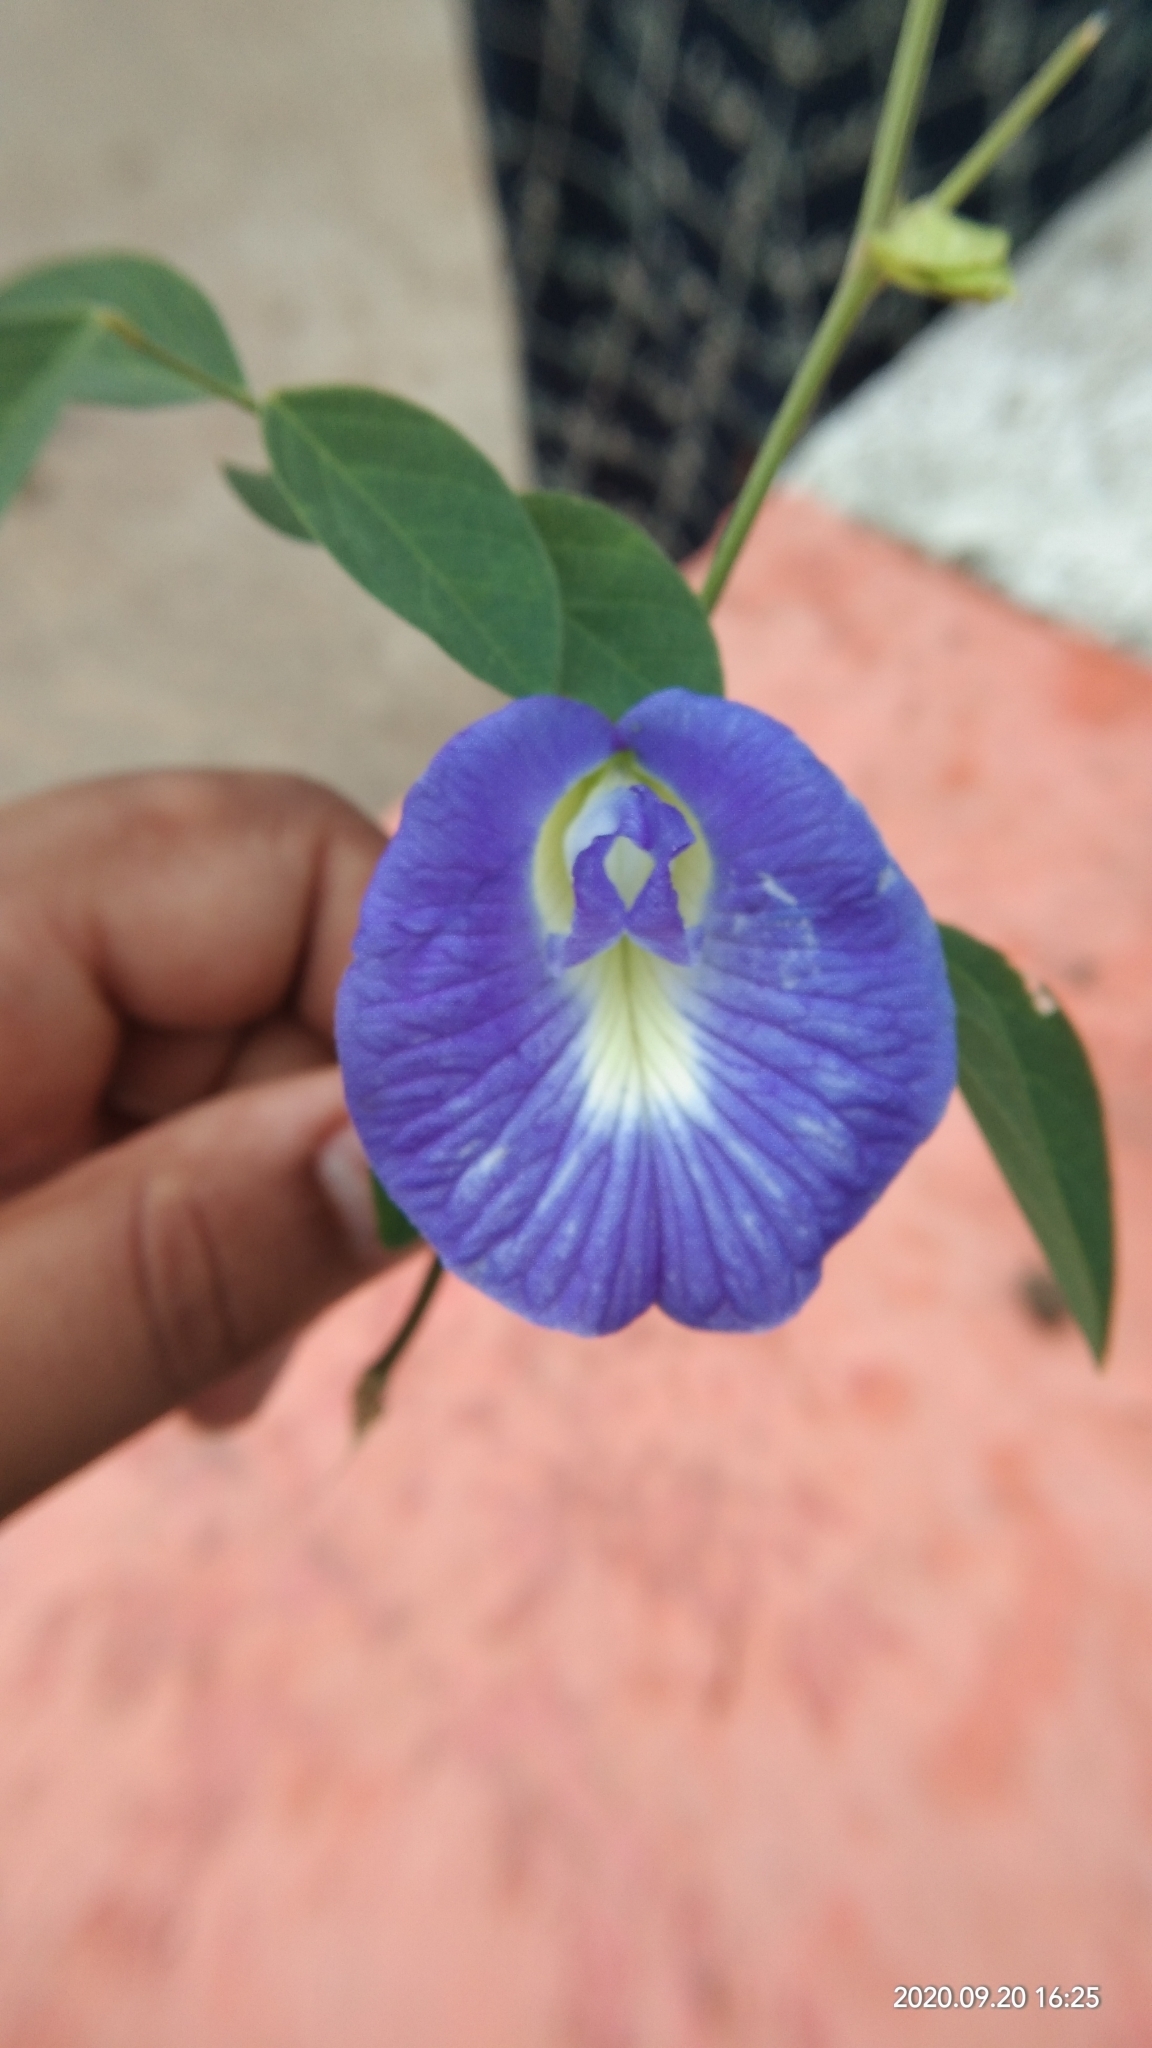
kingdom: Plantae
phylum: Tracheophyta
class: Magnoliopsida
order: Fabales
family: Fabaceae
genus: Clitoria
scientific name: Clitoria ternatea
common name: Asian pigeonwings
